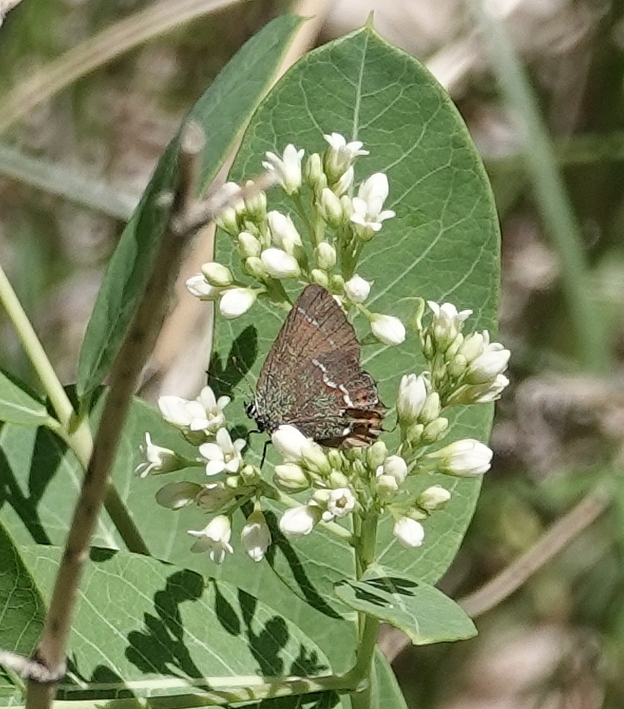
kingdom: Animalia
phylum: Arthropoda
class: Insecta
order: Lepidoptera
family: Lycaenidae
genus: Mitoura
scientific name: Mitoura gryneus
